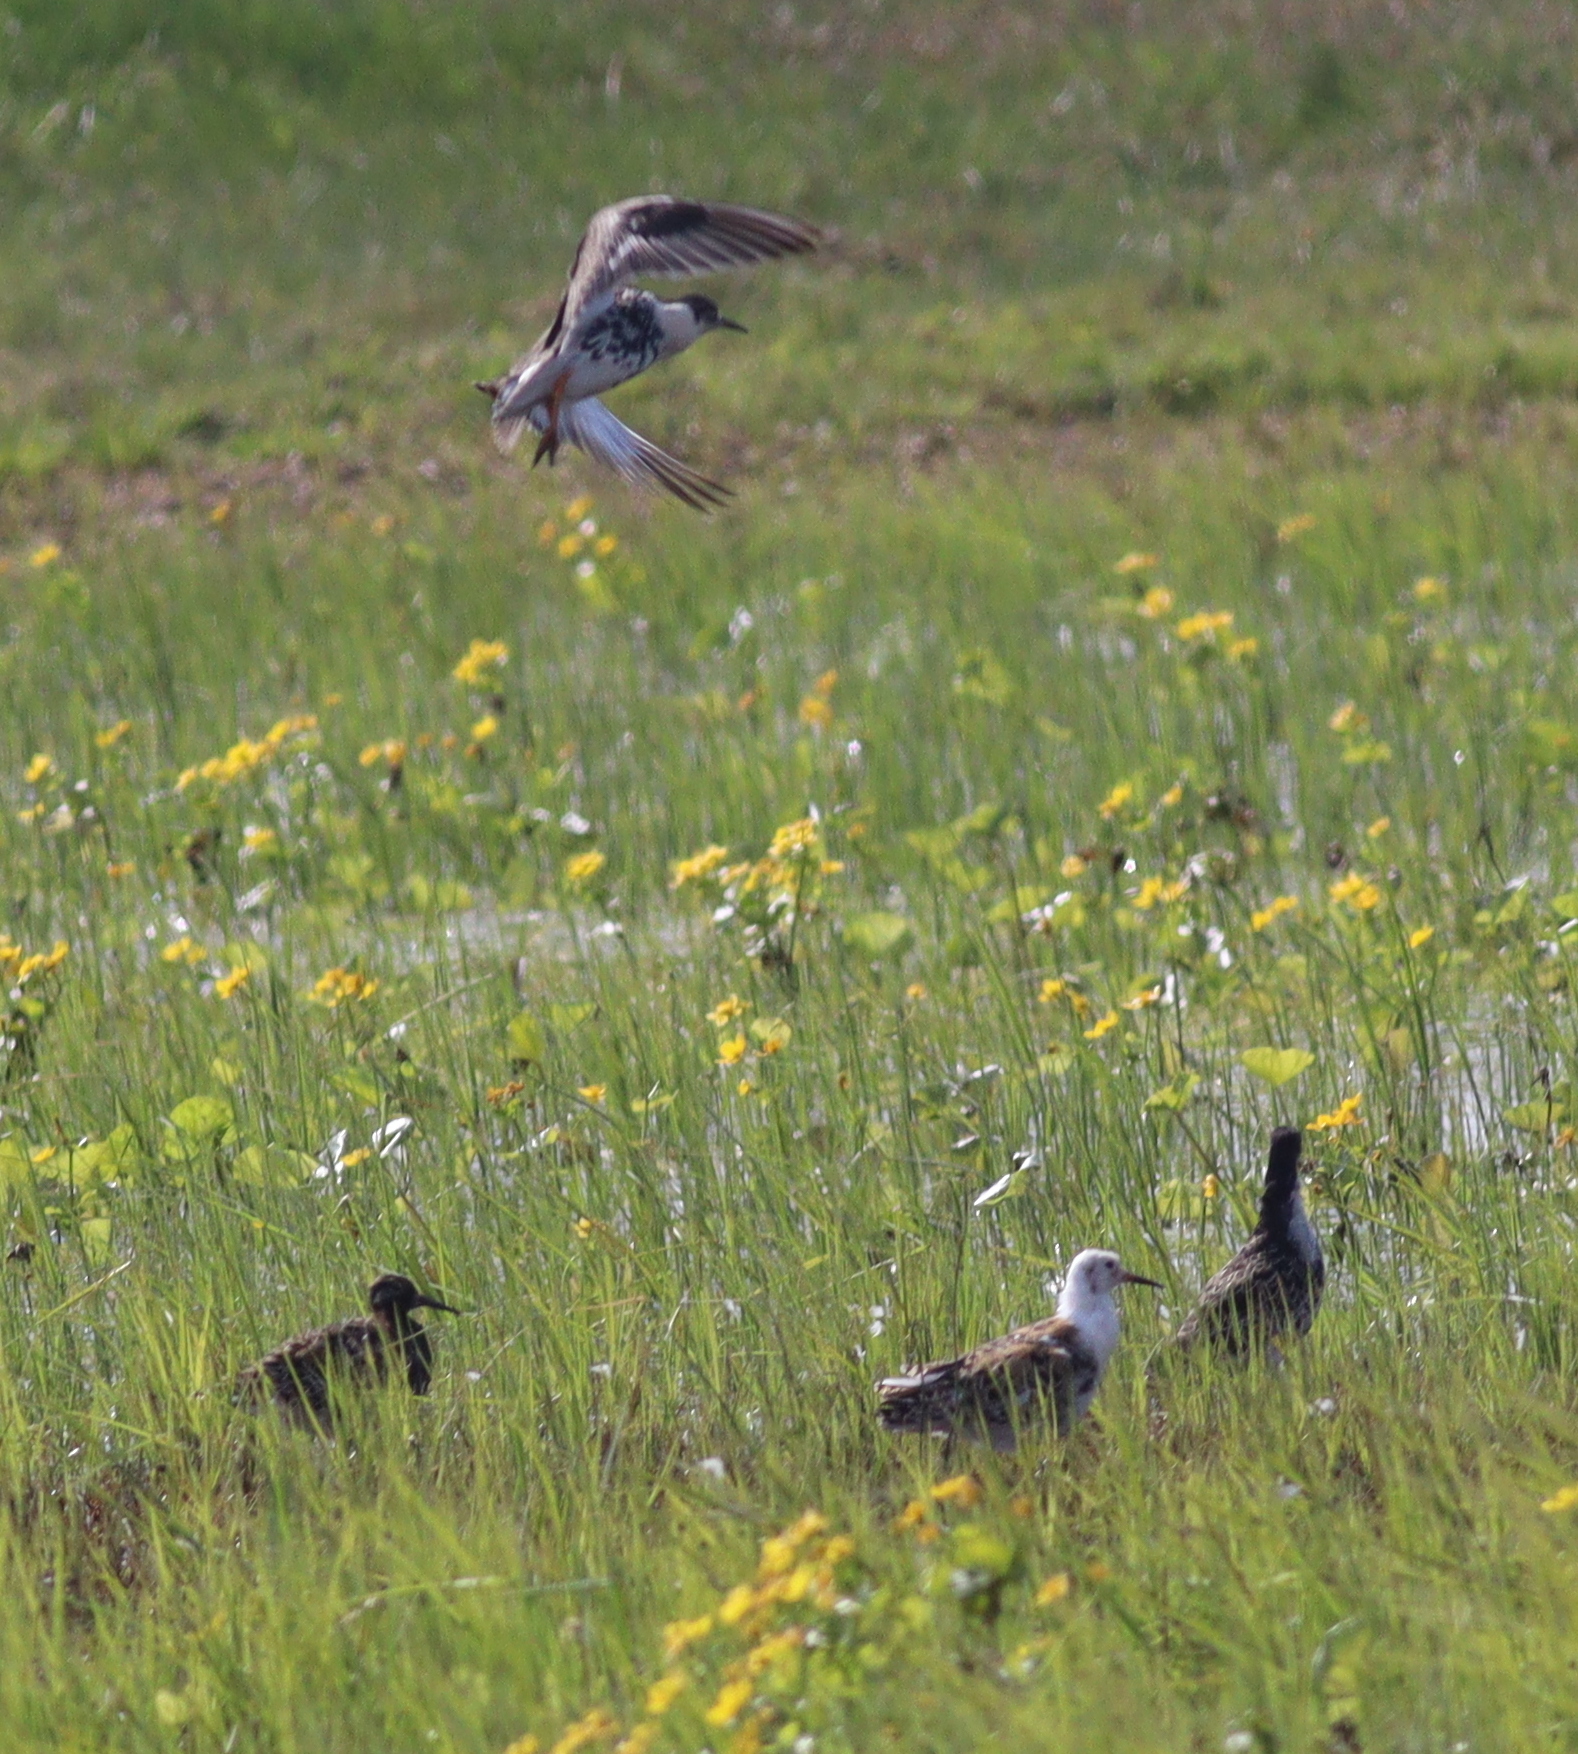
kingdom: Animalia
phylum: Chordata
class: Aves
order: Charadriiformes
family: Scolopacidae
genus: Calidris
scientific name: Calidris pugnax
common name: Ruff
